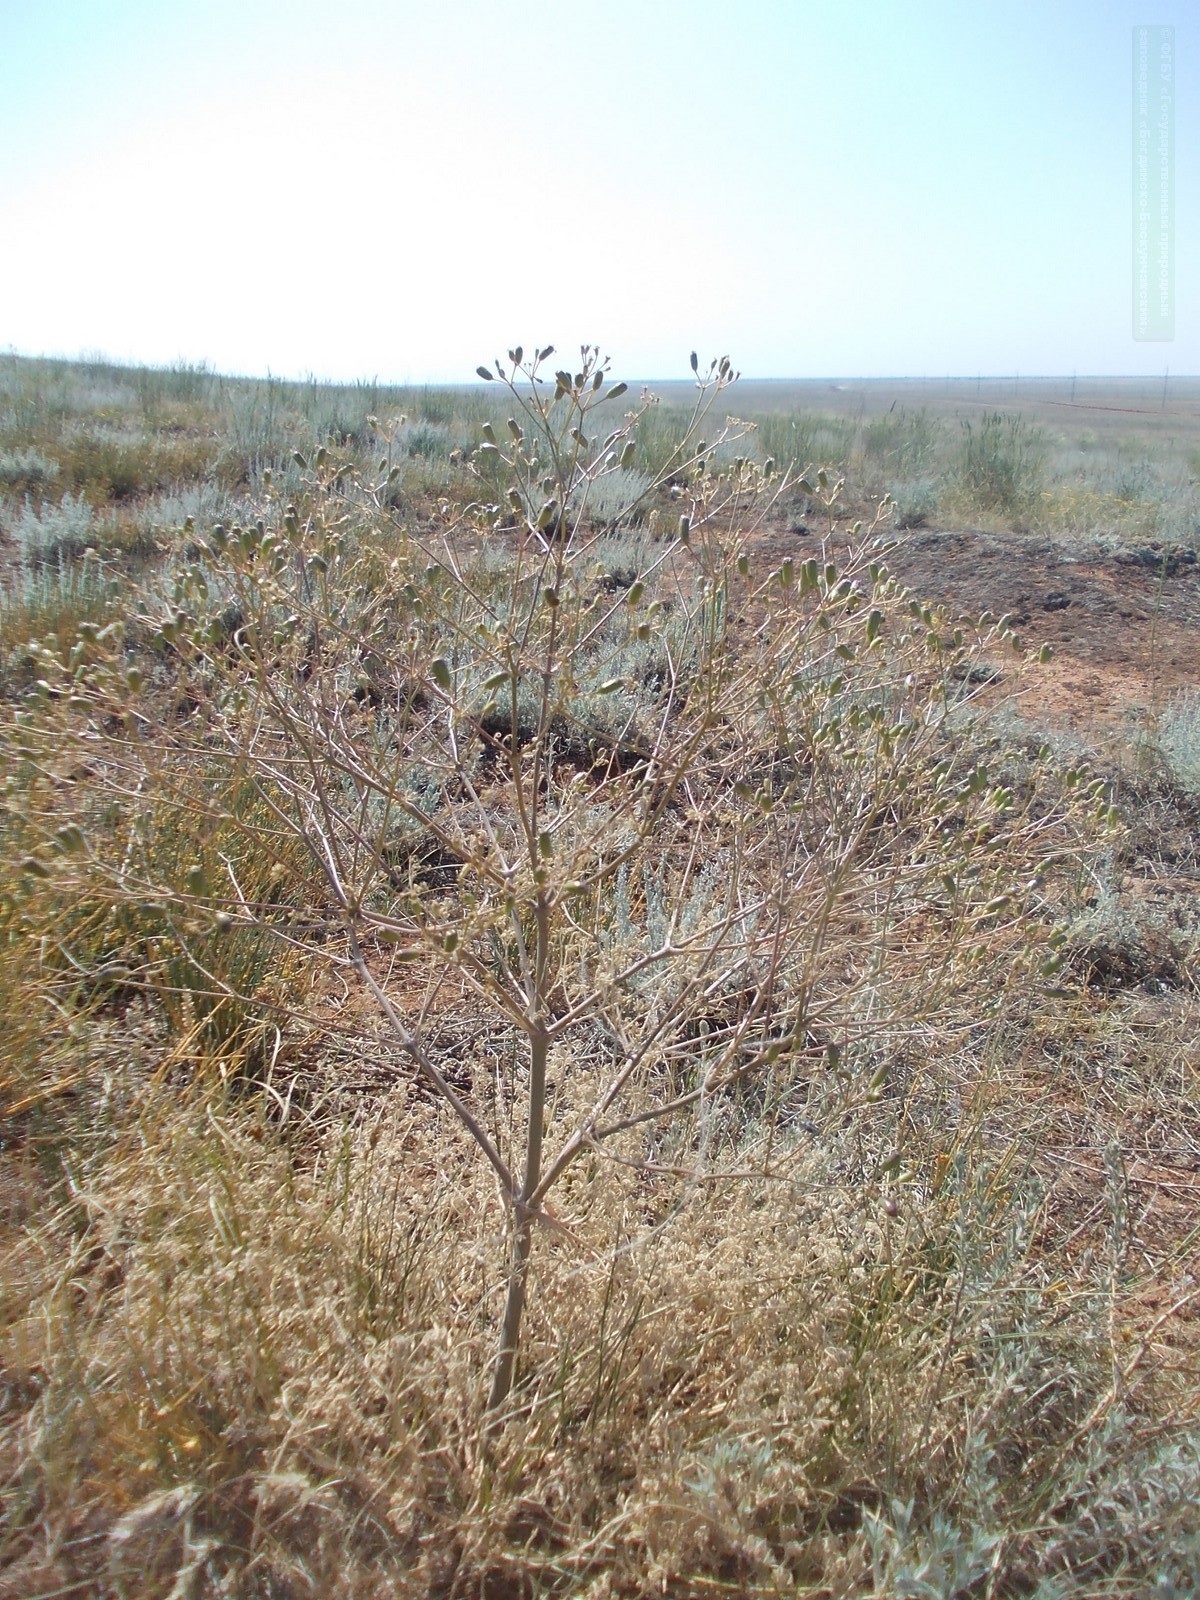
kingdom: Plantae
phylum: Tracheophyta
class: Magnoliopsida
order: Apiales
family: Apiaceae
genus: Prangos
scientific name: Prangos odontalgica
